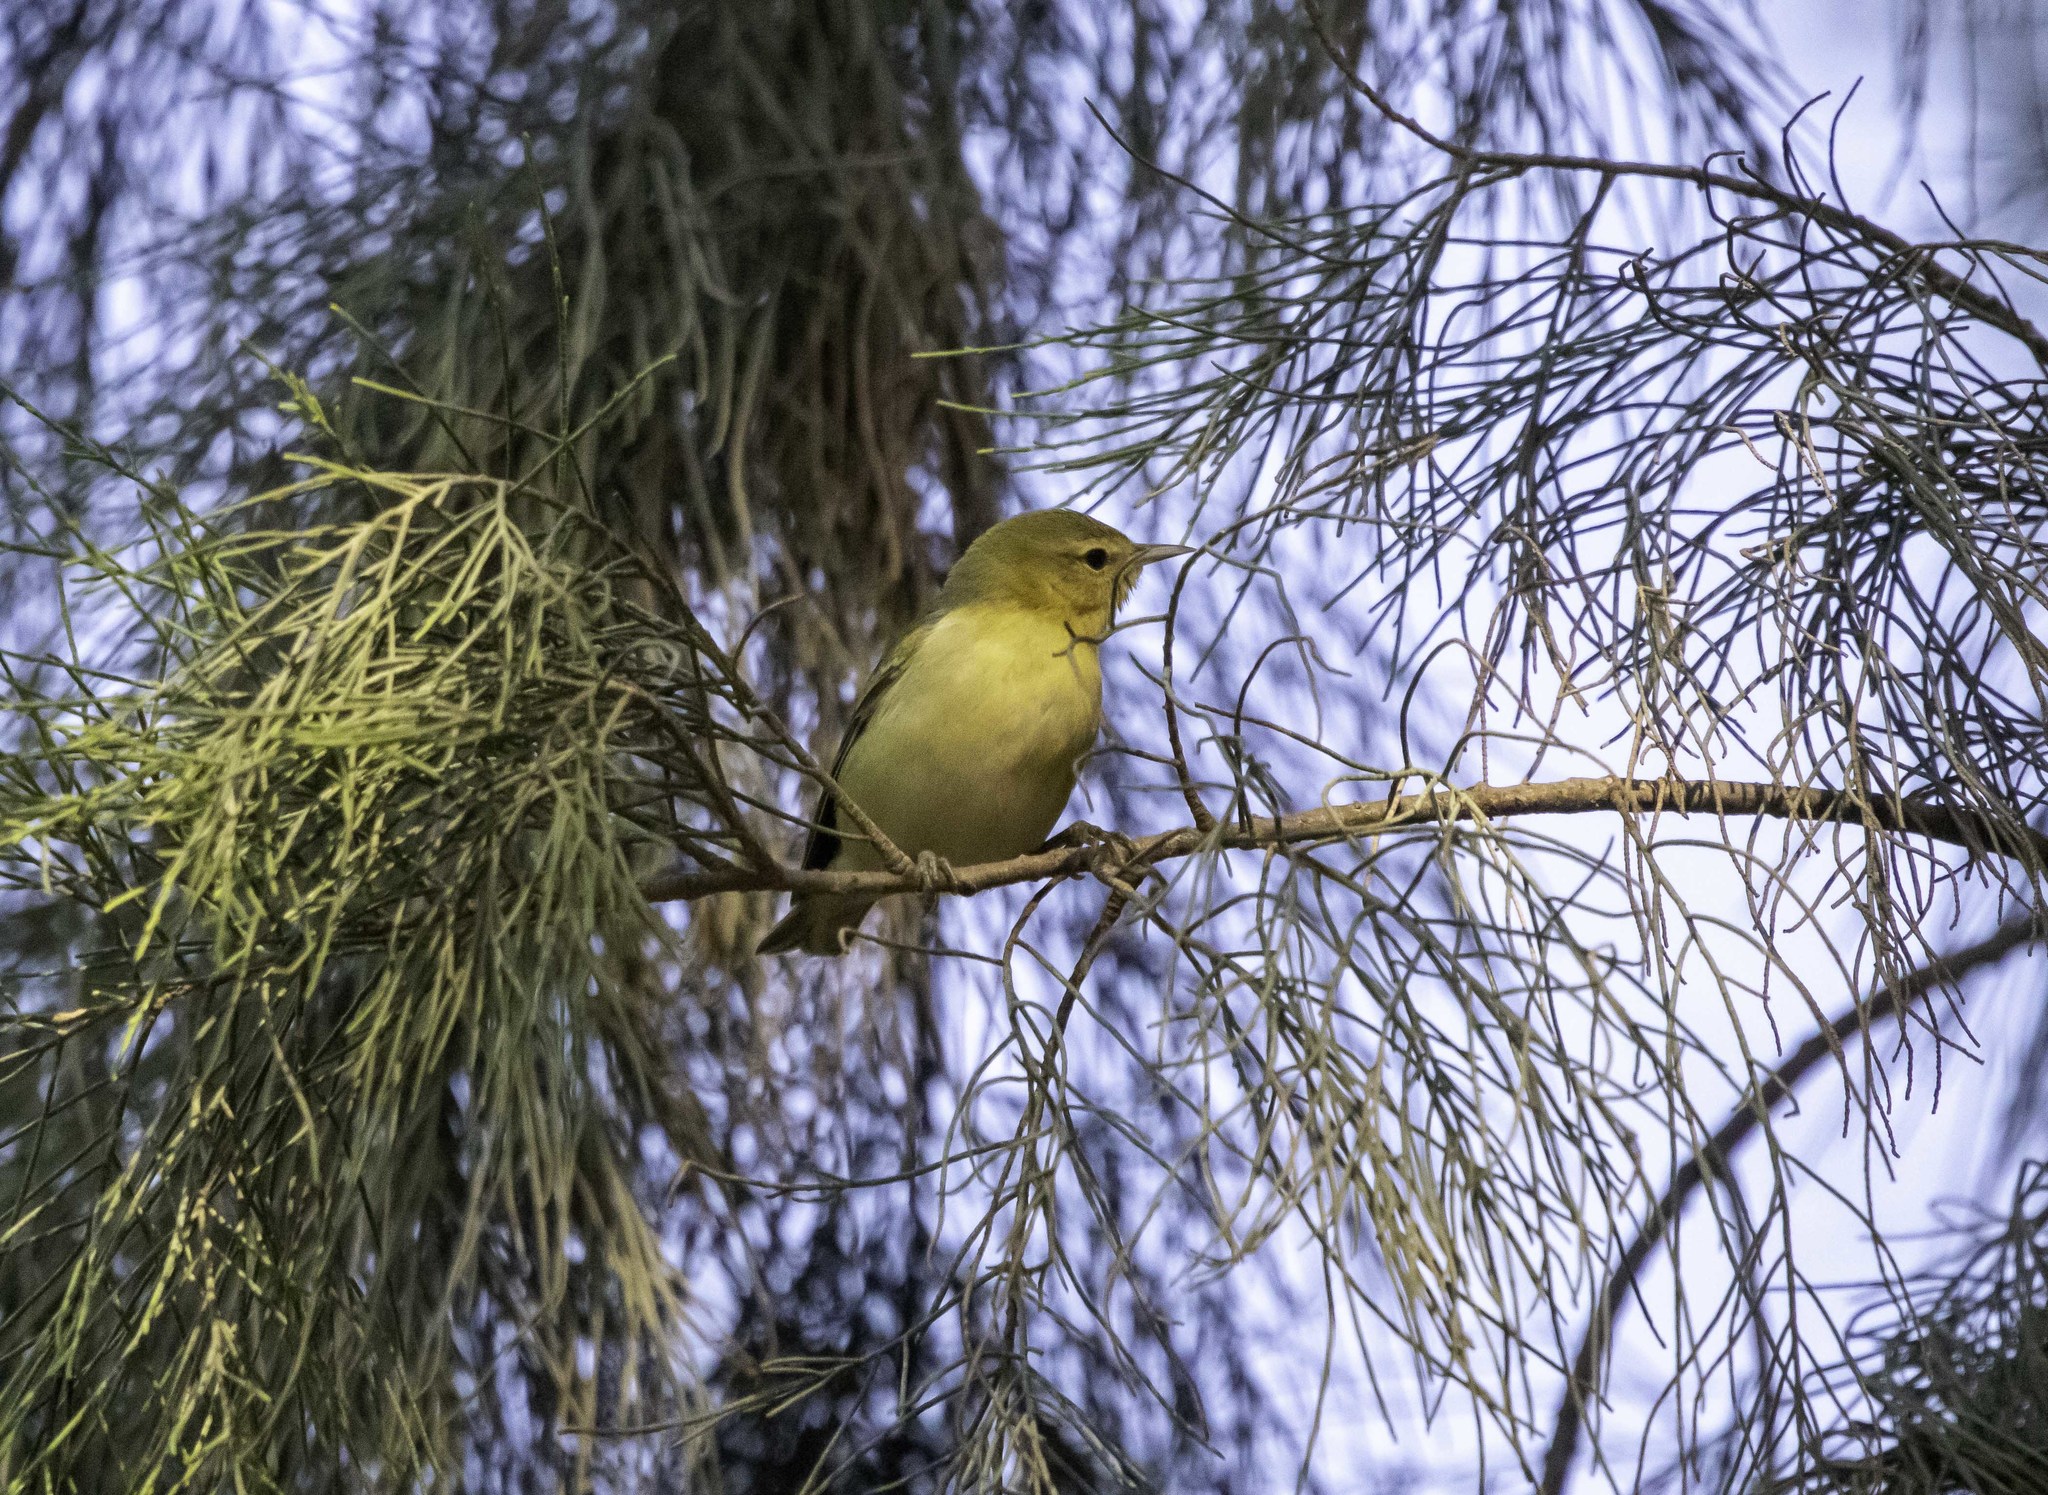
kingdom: Animalia
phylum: Chordata
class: Aves
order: Passeriformes
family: Parulidae
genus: Leiothlypis
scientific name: Leiothlypis peregrina
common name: Tennessee warbler
